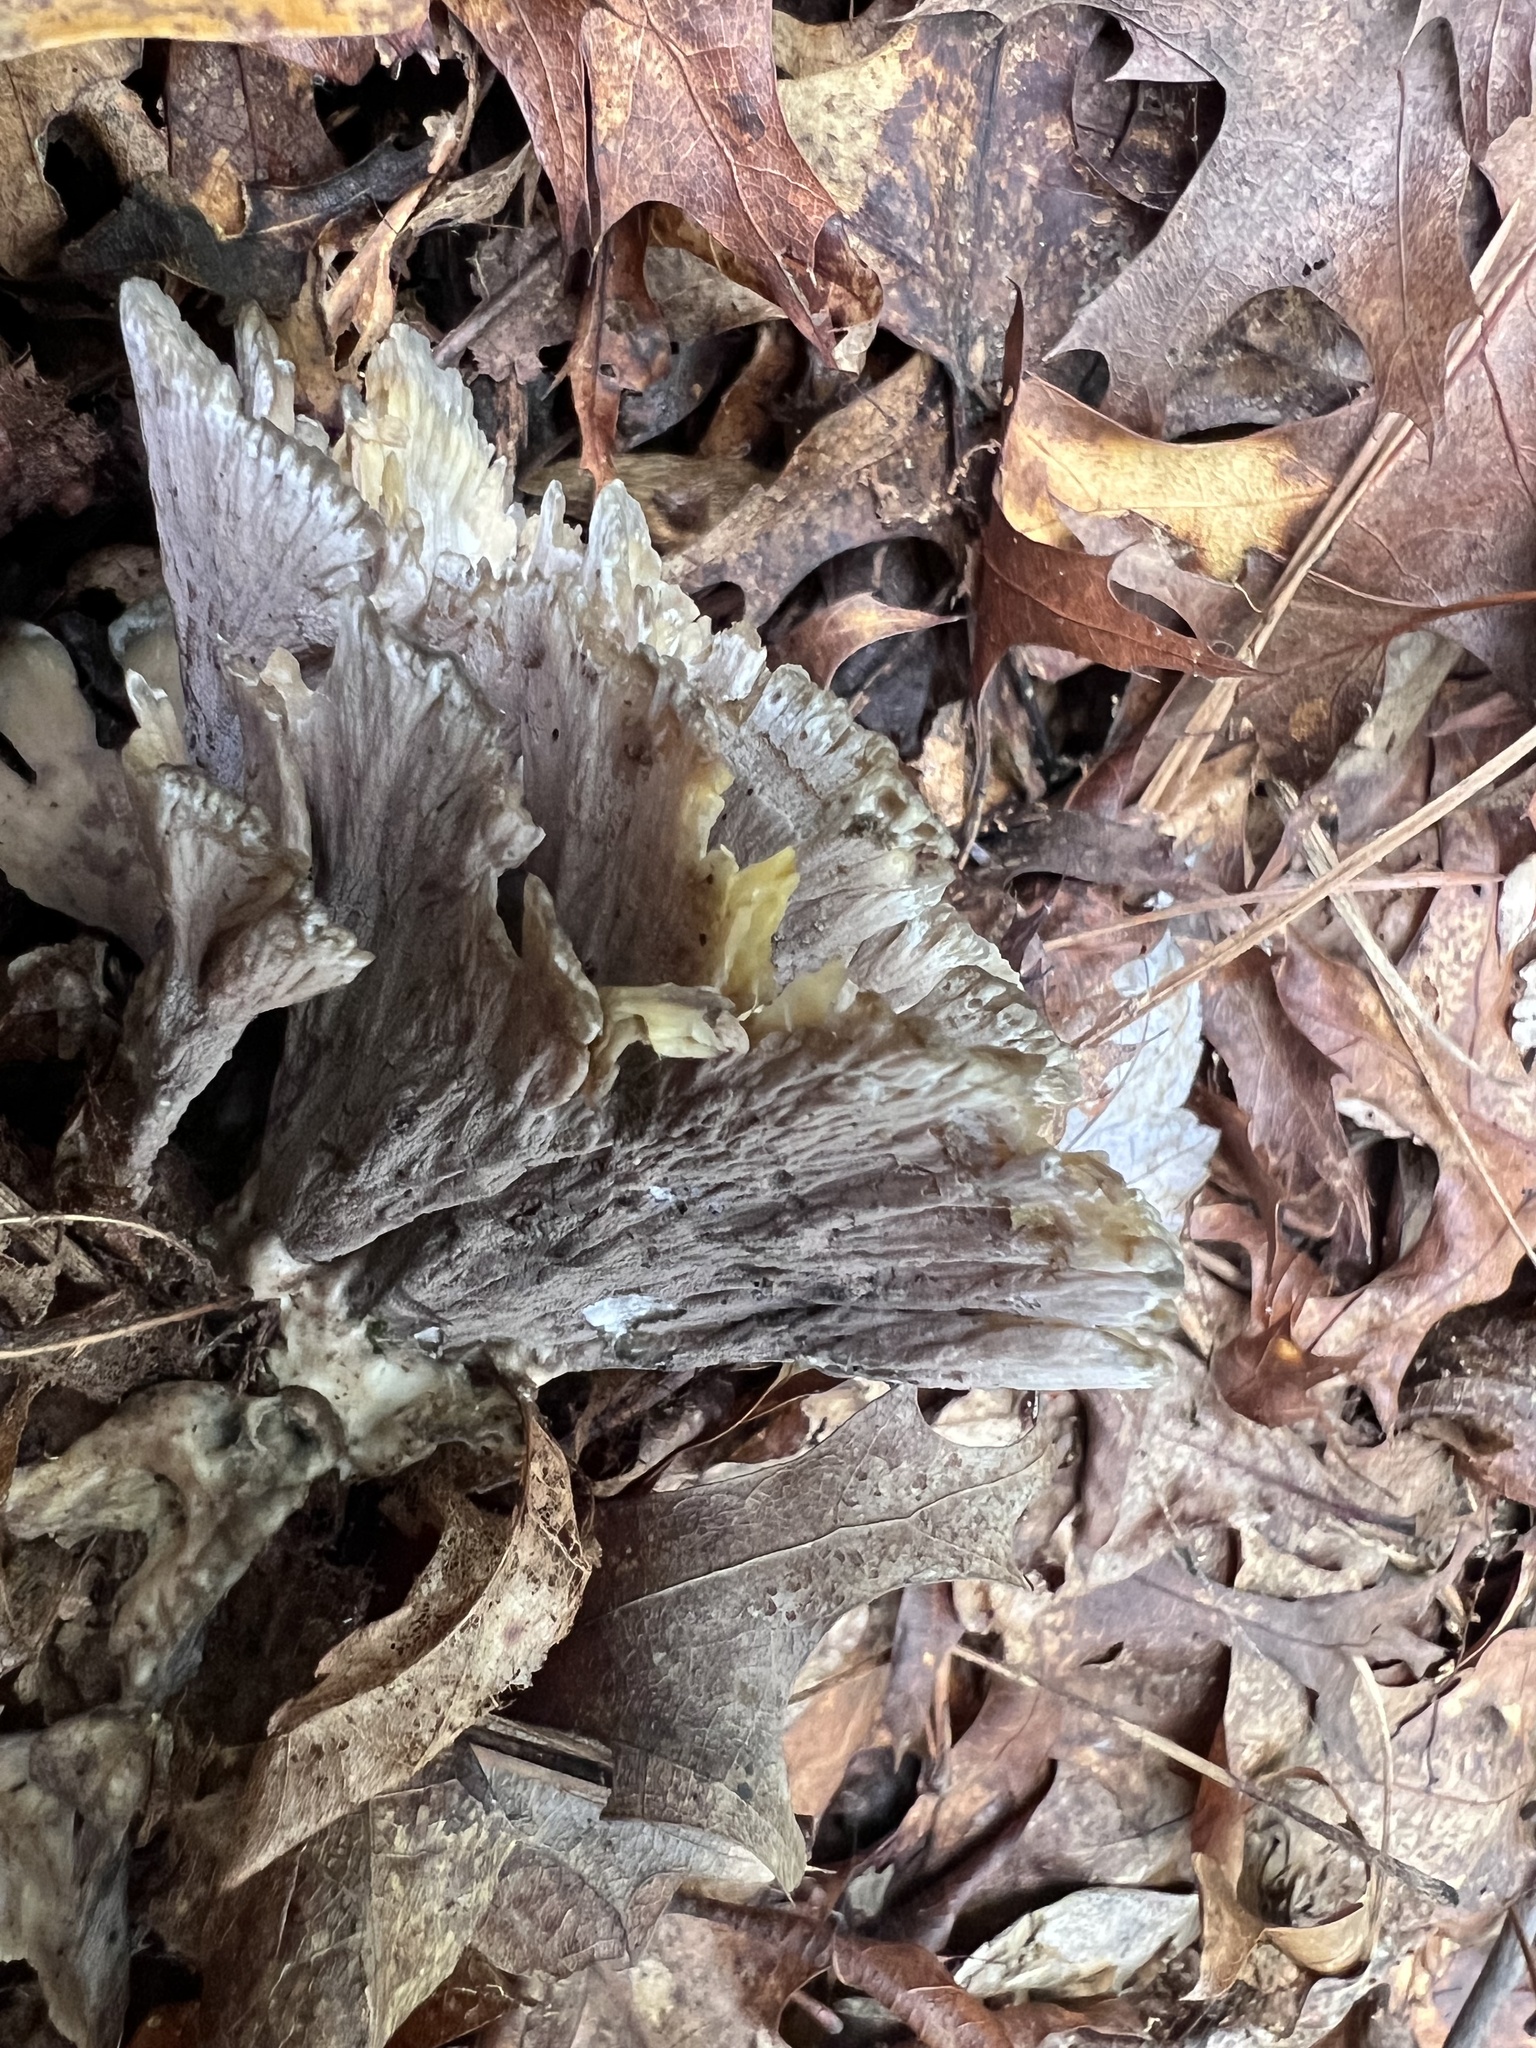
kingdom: Fungi
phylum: Basidiomycota
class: Agaricomycetes
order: Polyporales
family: Meripilaceae
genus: Meripilus
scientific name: Meripilus sumstinei
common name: Black-staining polypore
